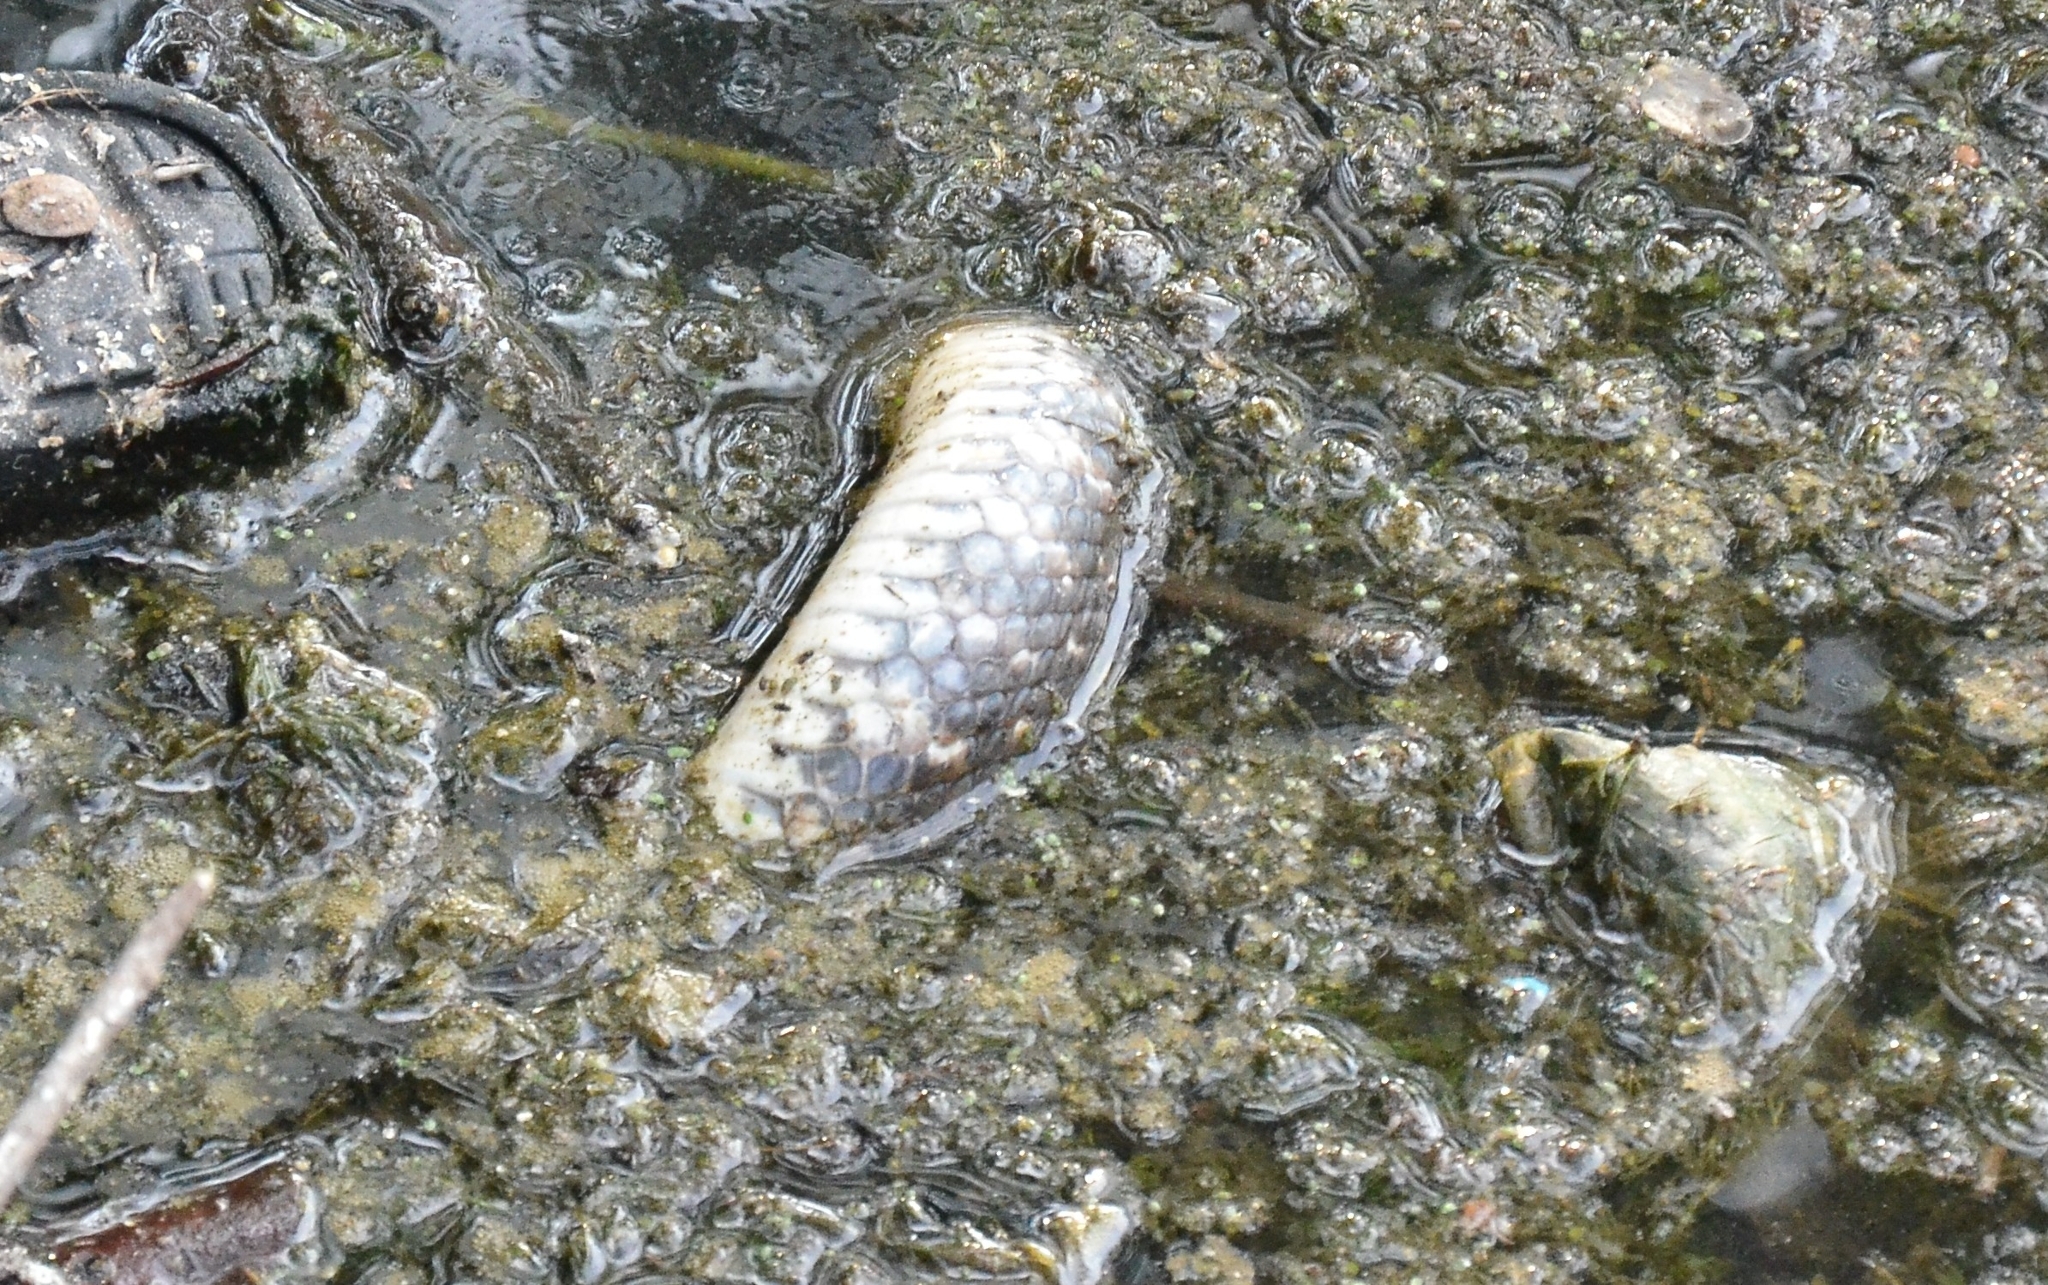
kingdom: Animalia
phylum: Chordata
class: Squamata
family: Colubridae
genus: Fowlea
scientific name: Fowlea piscator
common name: Asiatic water snake
